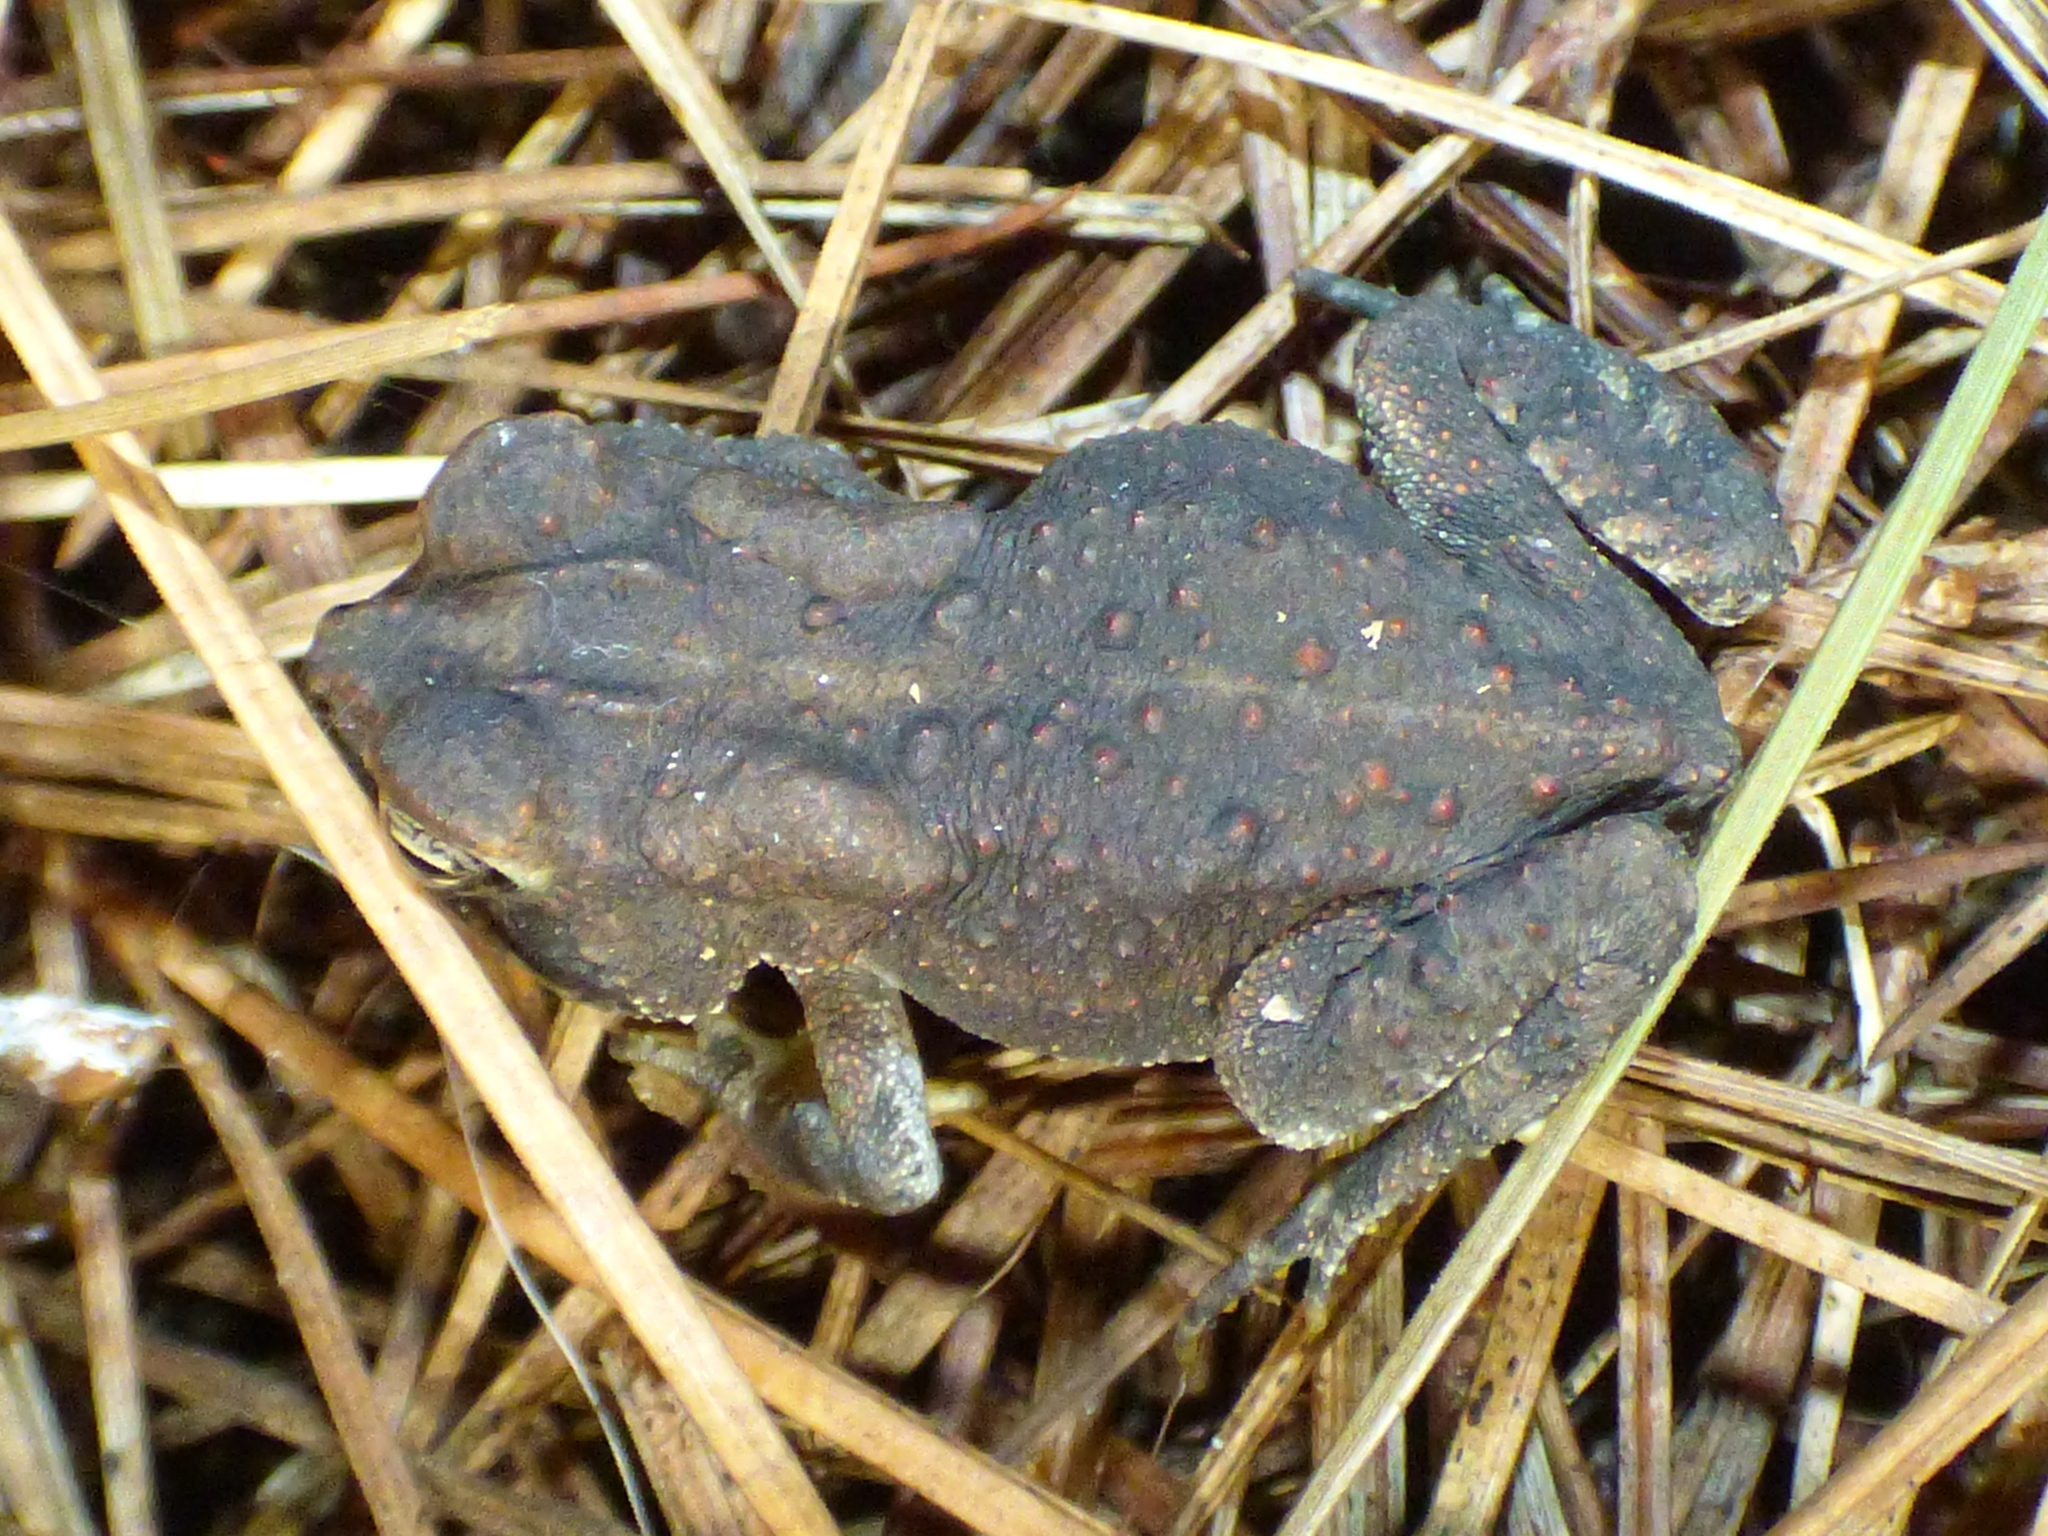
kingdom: Animalia
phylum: Chordata
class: Amphibia
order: Anura
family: Bufonidae
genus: Anaxyrus
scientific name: Anaxyrus terrestris
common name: Southern toad
